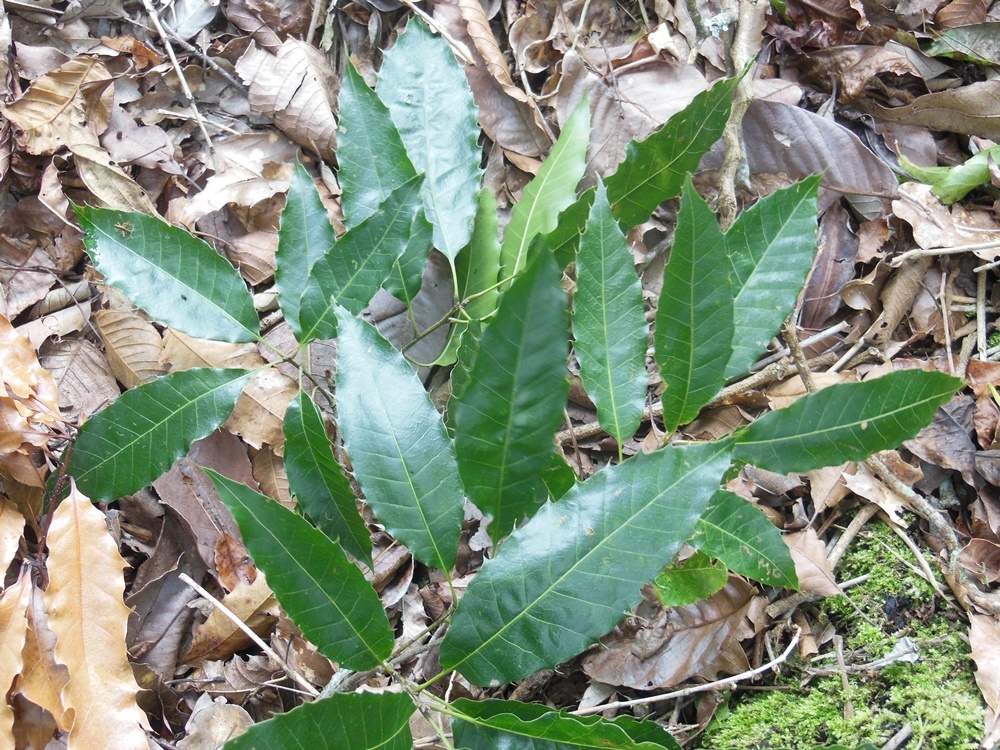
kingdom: Plantae
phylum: Tracheophyta
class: Magnoliopsida
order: Fagales
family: Fagaceae
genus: Quercus
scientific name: Quercus paxtalensis
